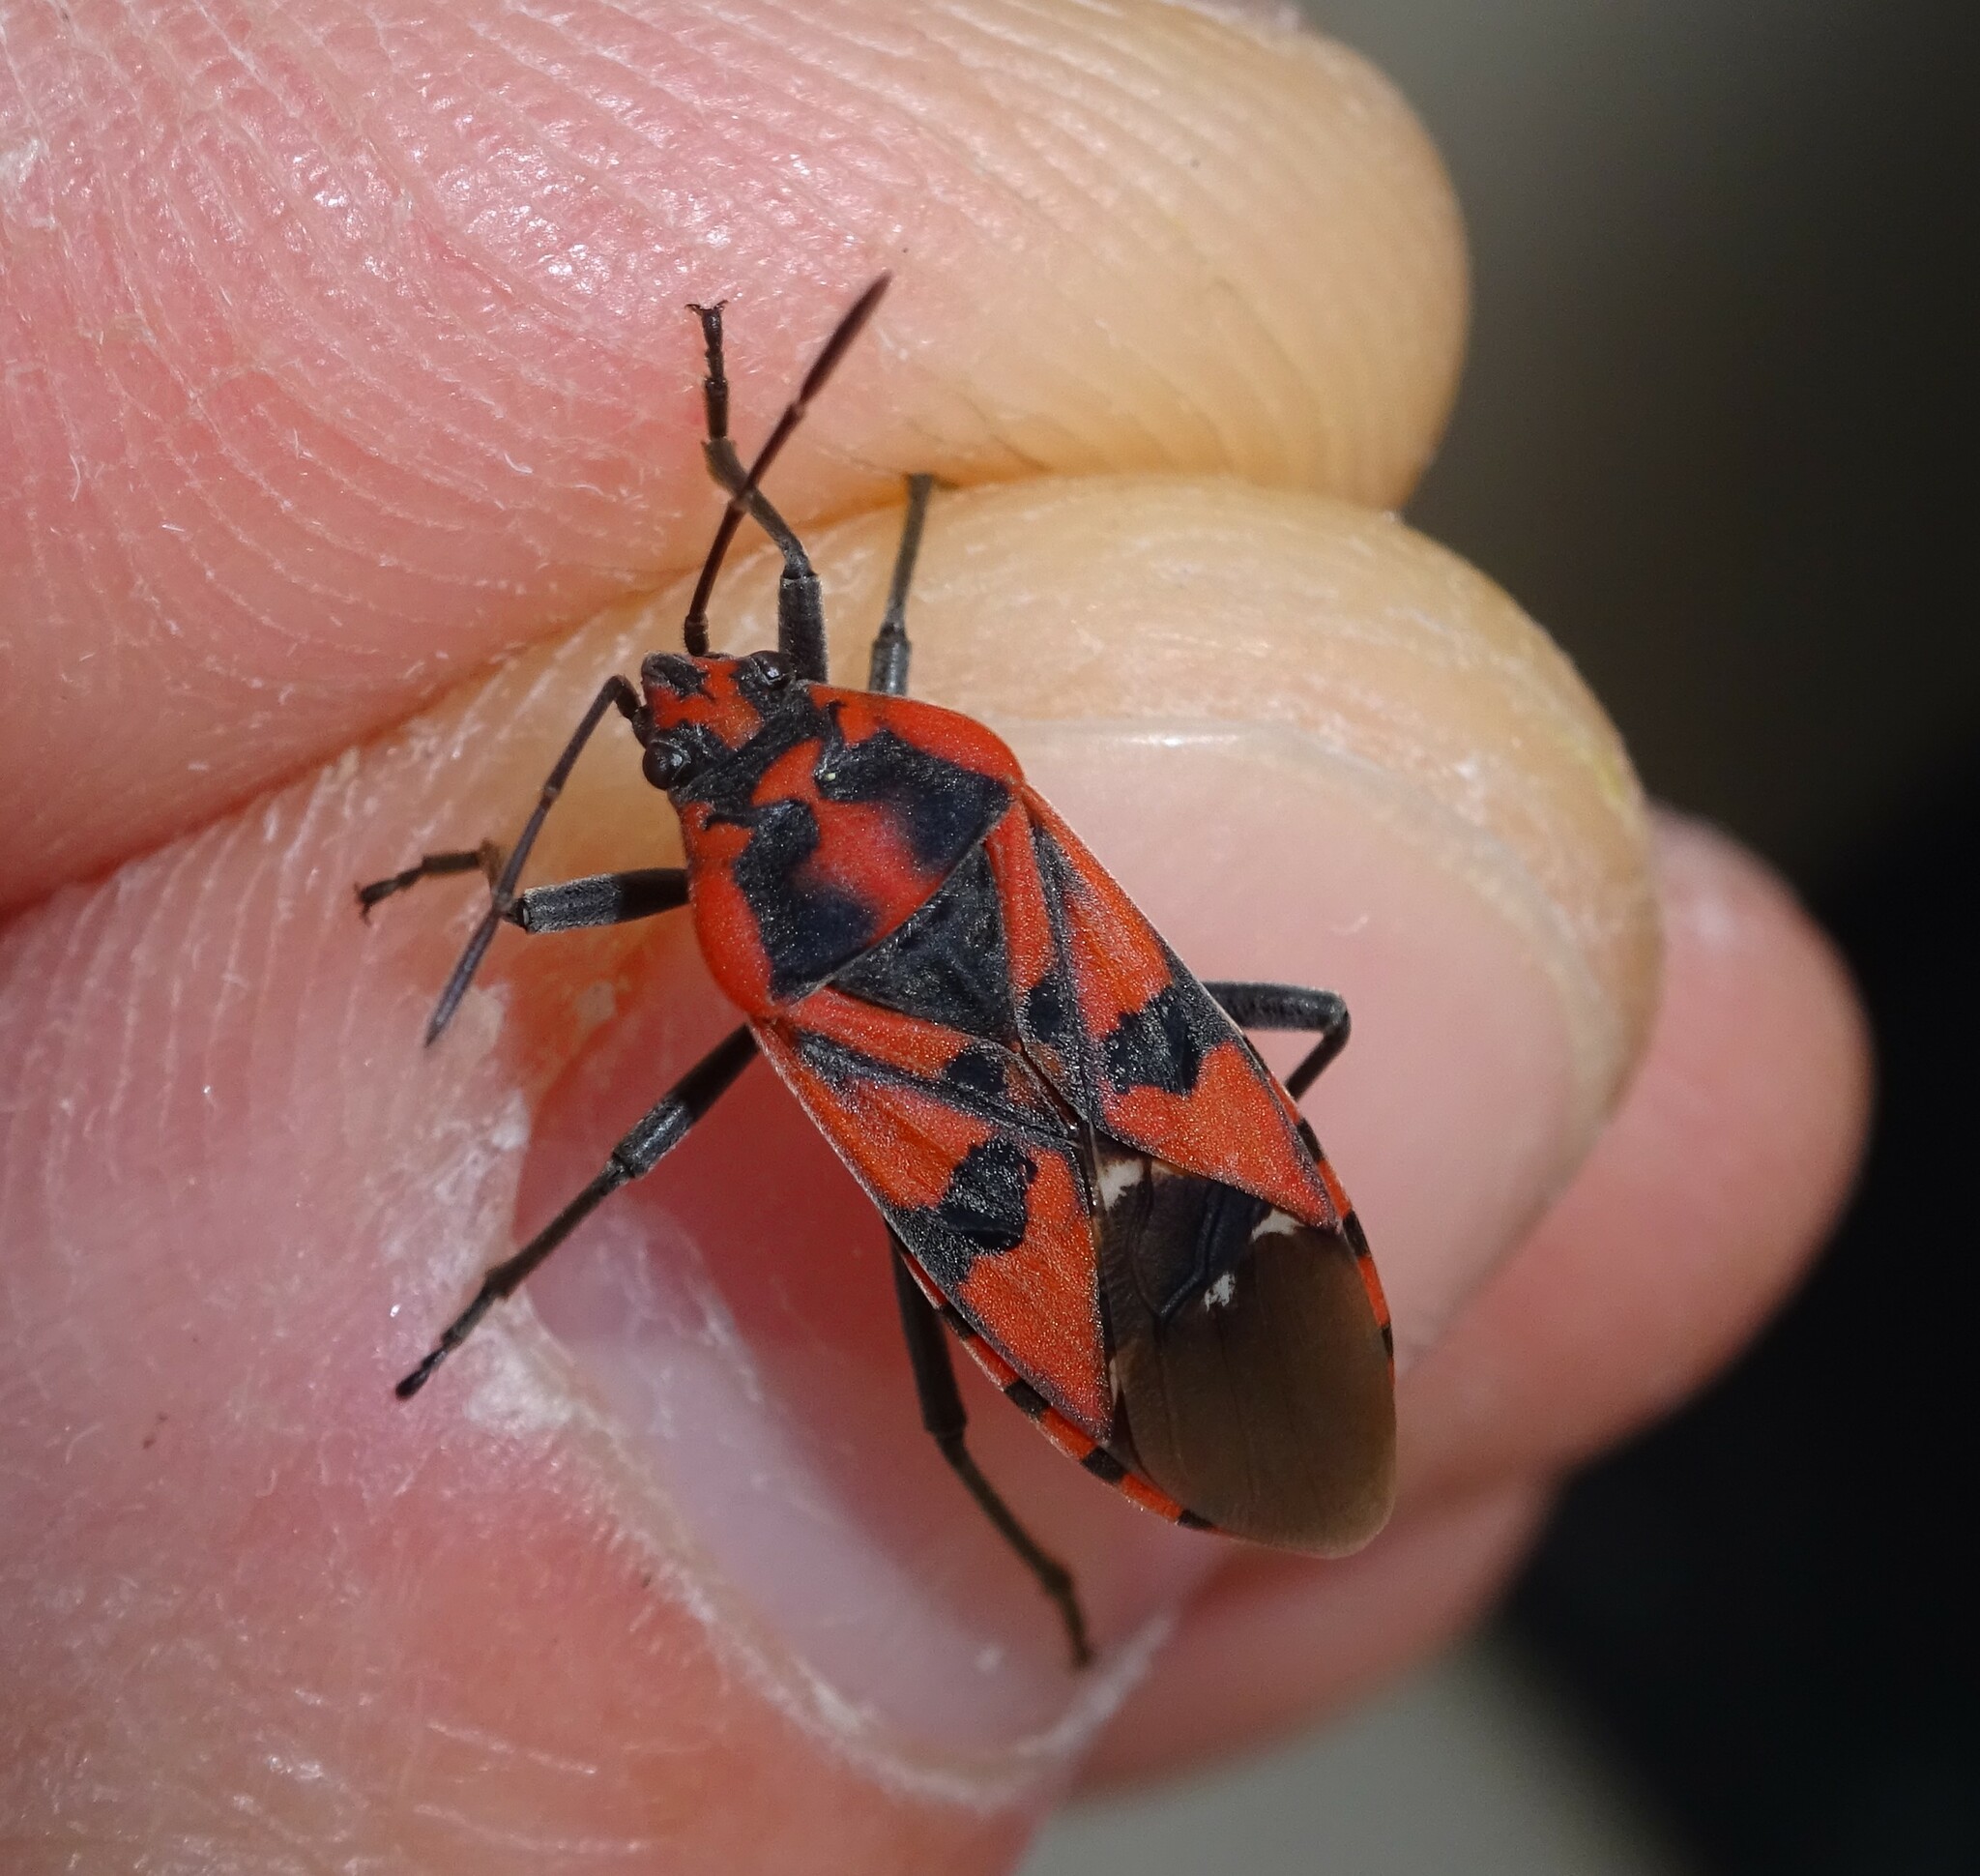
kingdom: Animalia
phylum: Arthropoda
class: Insecta
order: Hemiptera
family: Lygaeidae
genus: Spilostethus
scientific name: Spilostethus pandurus
